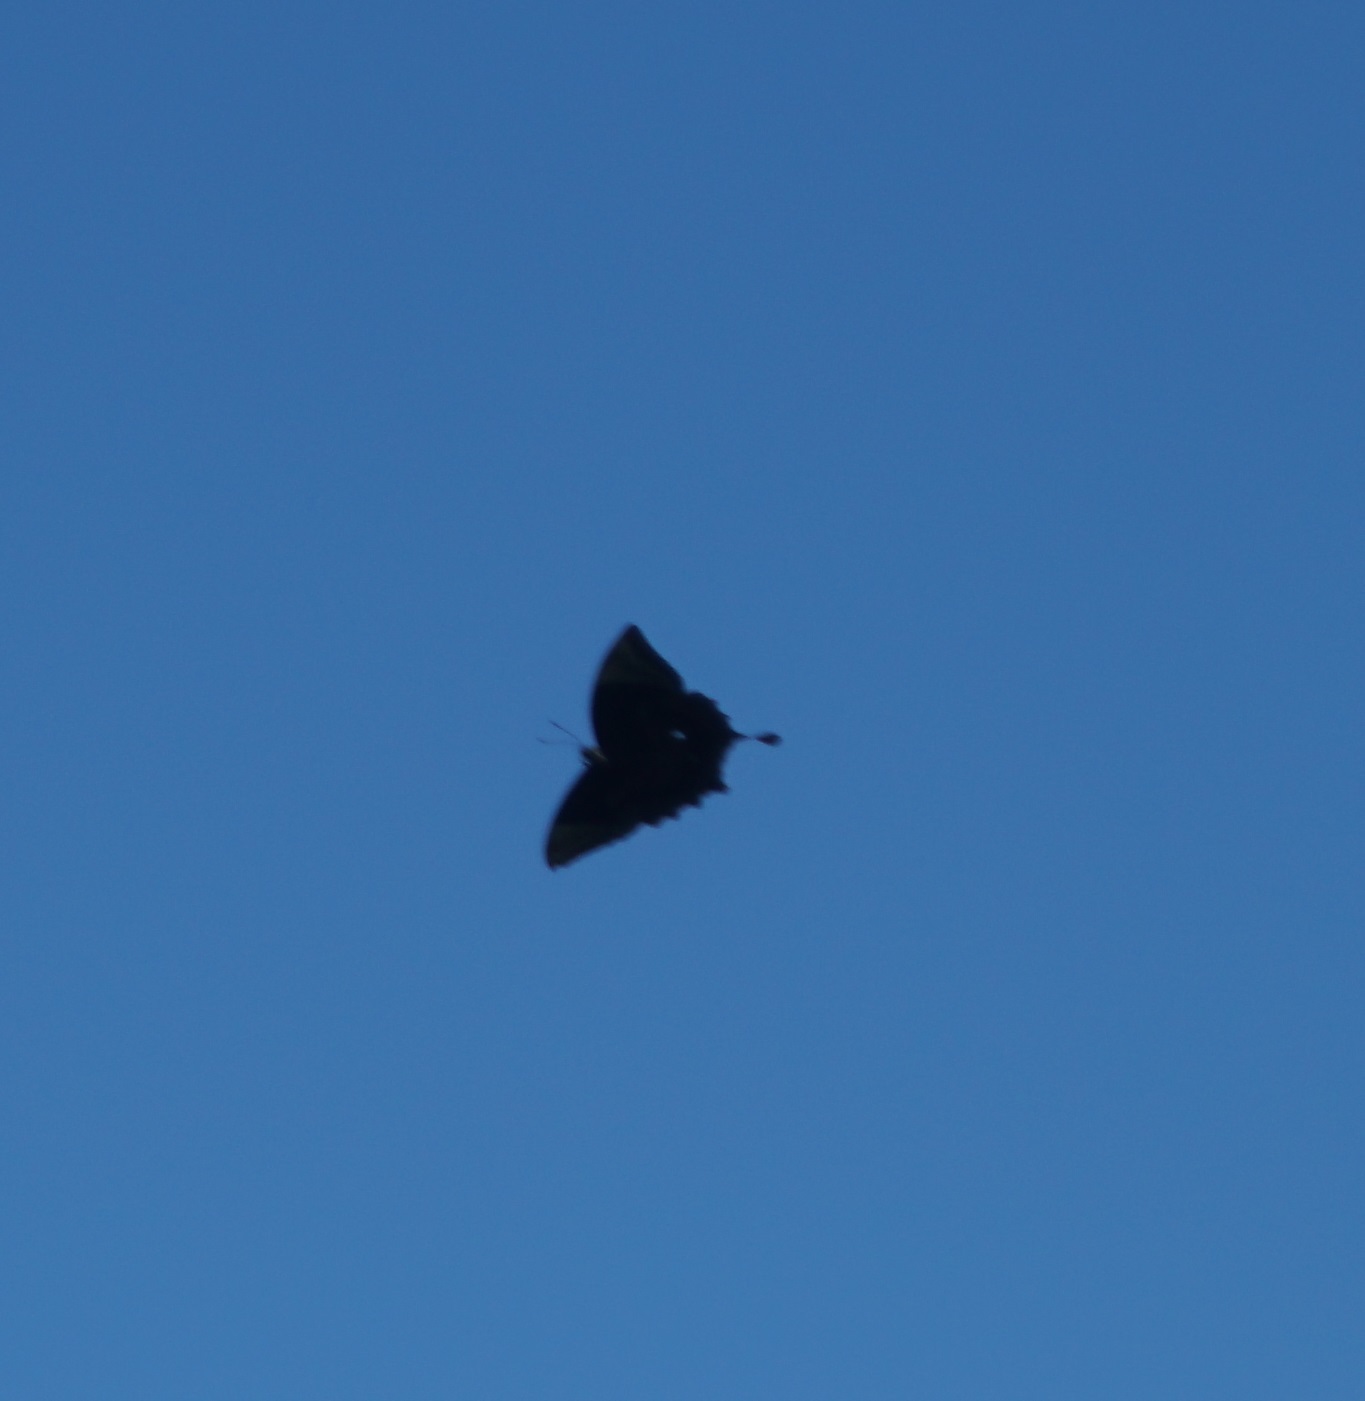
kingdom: Animalia
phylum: Arthropoda
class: Insecta
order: Lepidoptera
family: Papilionidae
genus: Papilio
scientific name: Papilio ulysses
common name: Blue emperor
